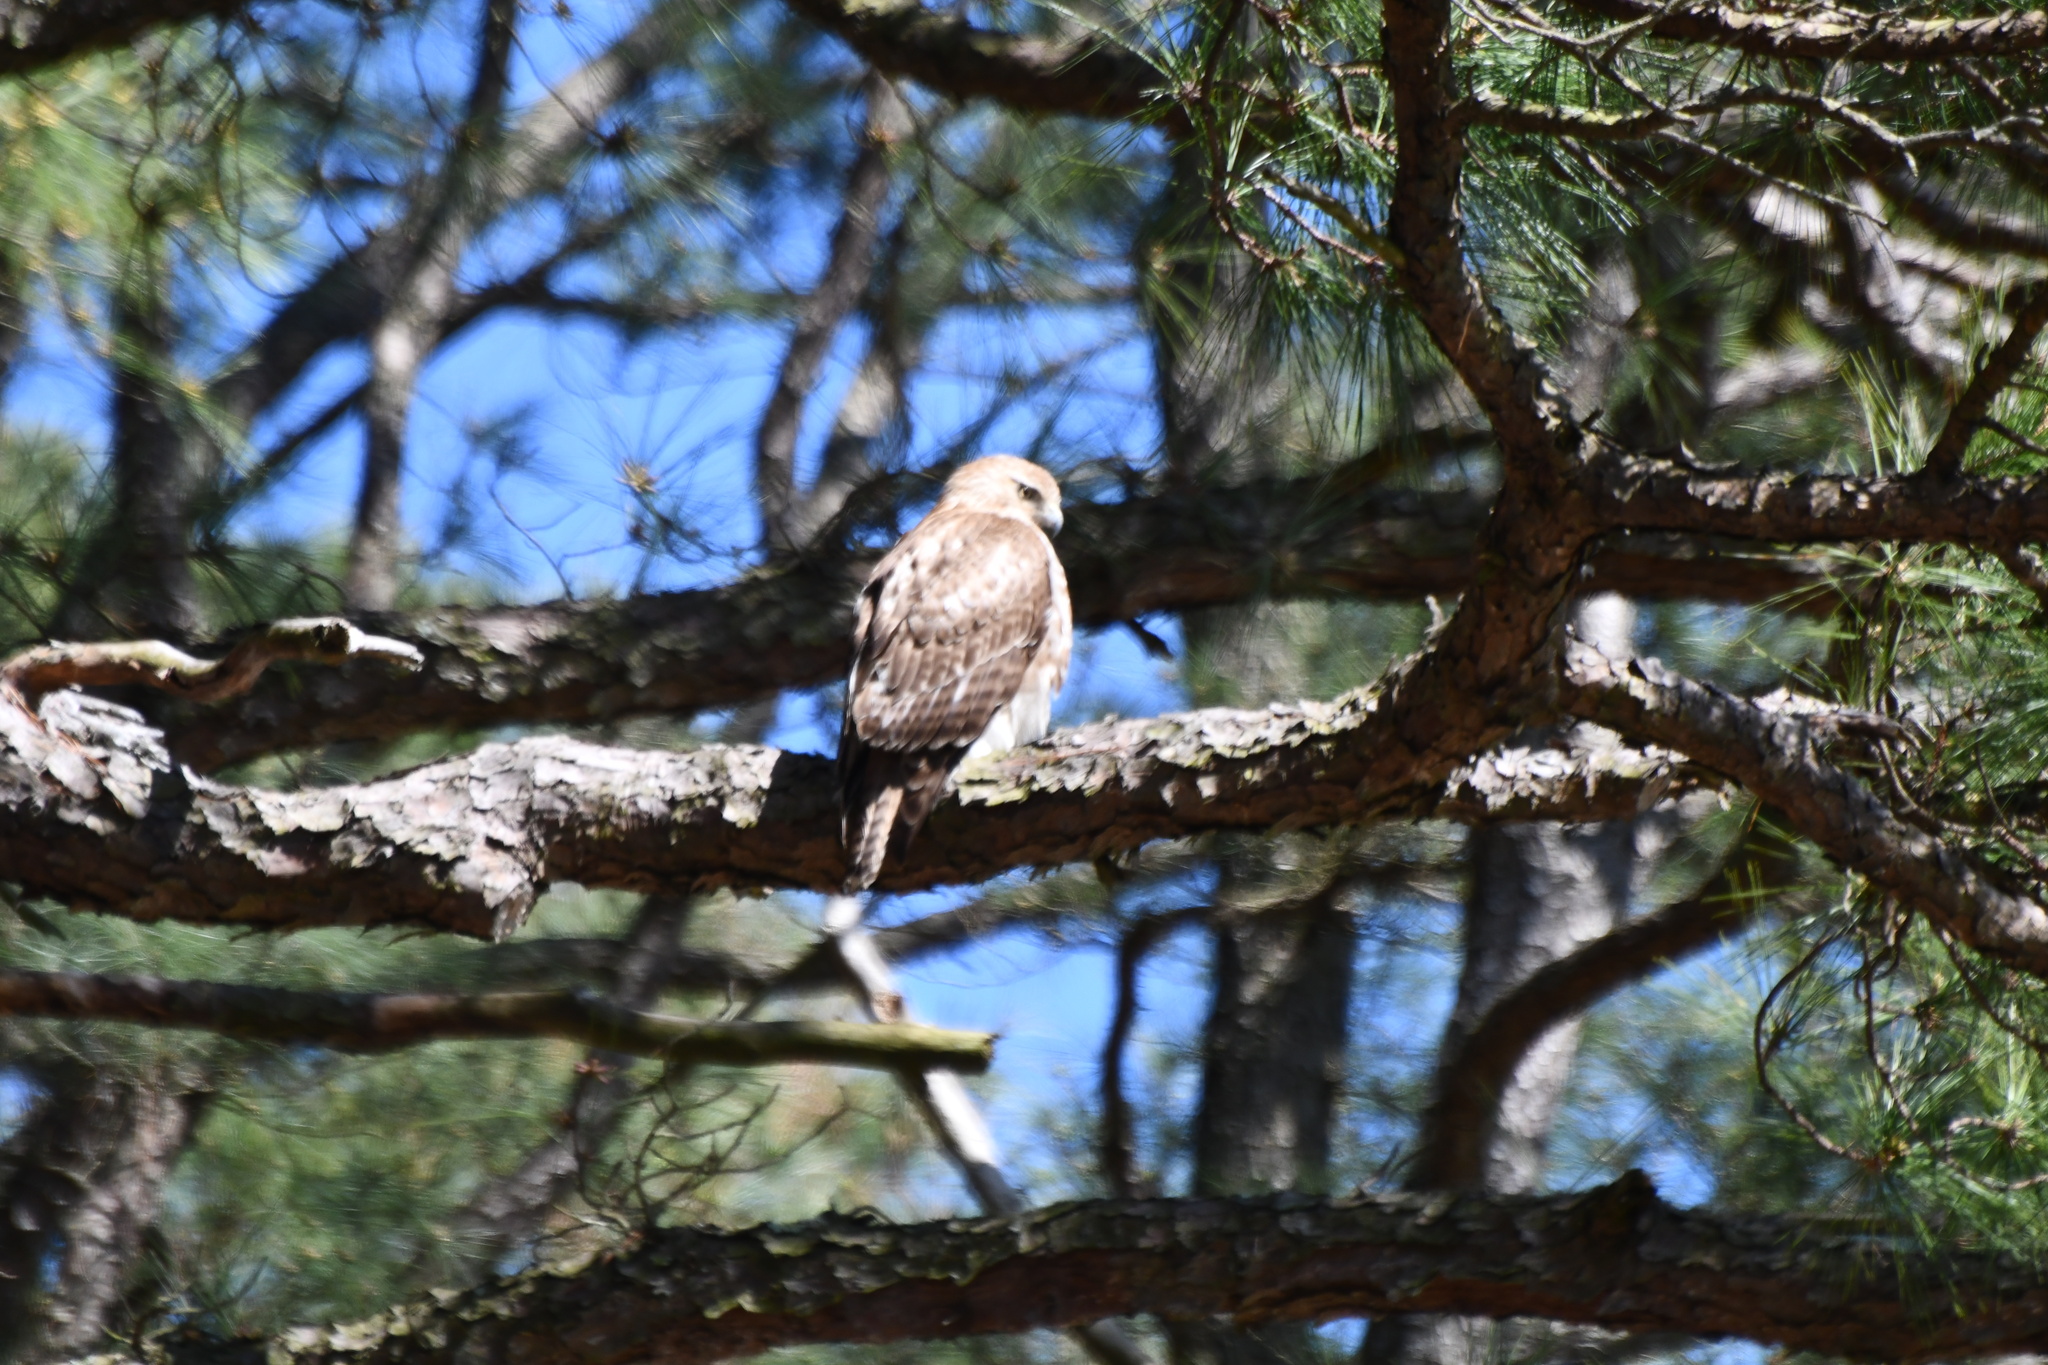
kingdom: Animalia
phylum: Chordata
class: Aves
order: Accipitriformes
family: Accipitridae
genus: Buteo
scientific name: Buteo jamaicensis
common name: Red-tailed hawk
